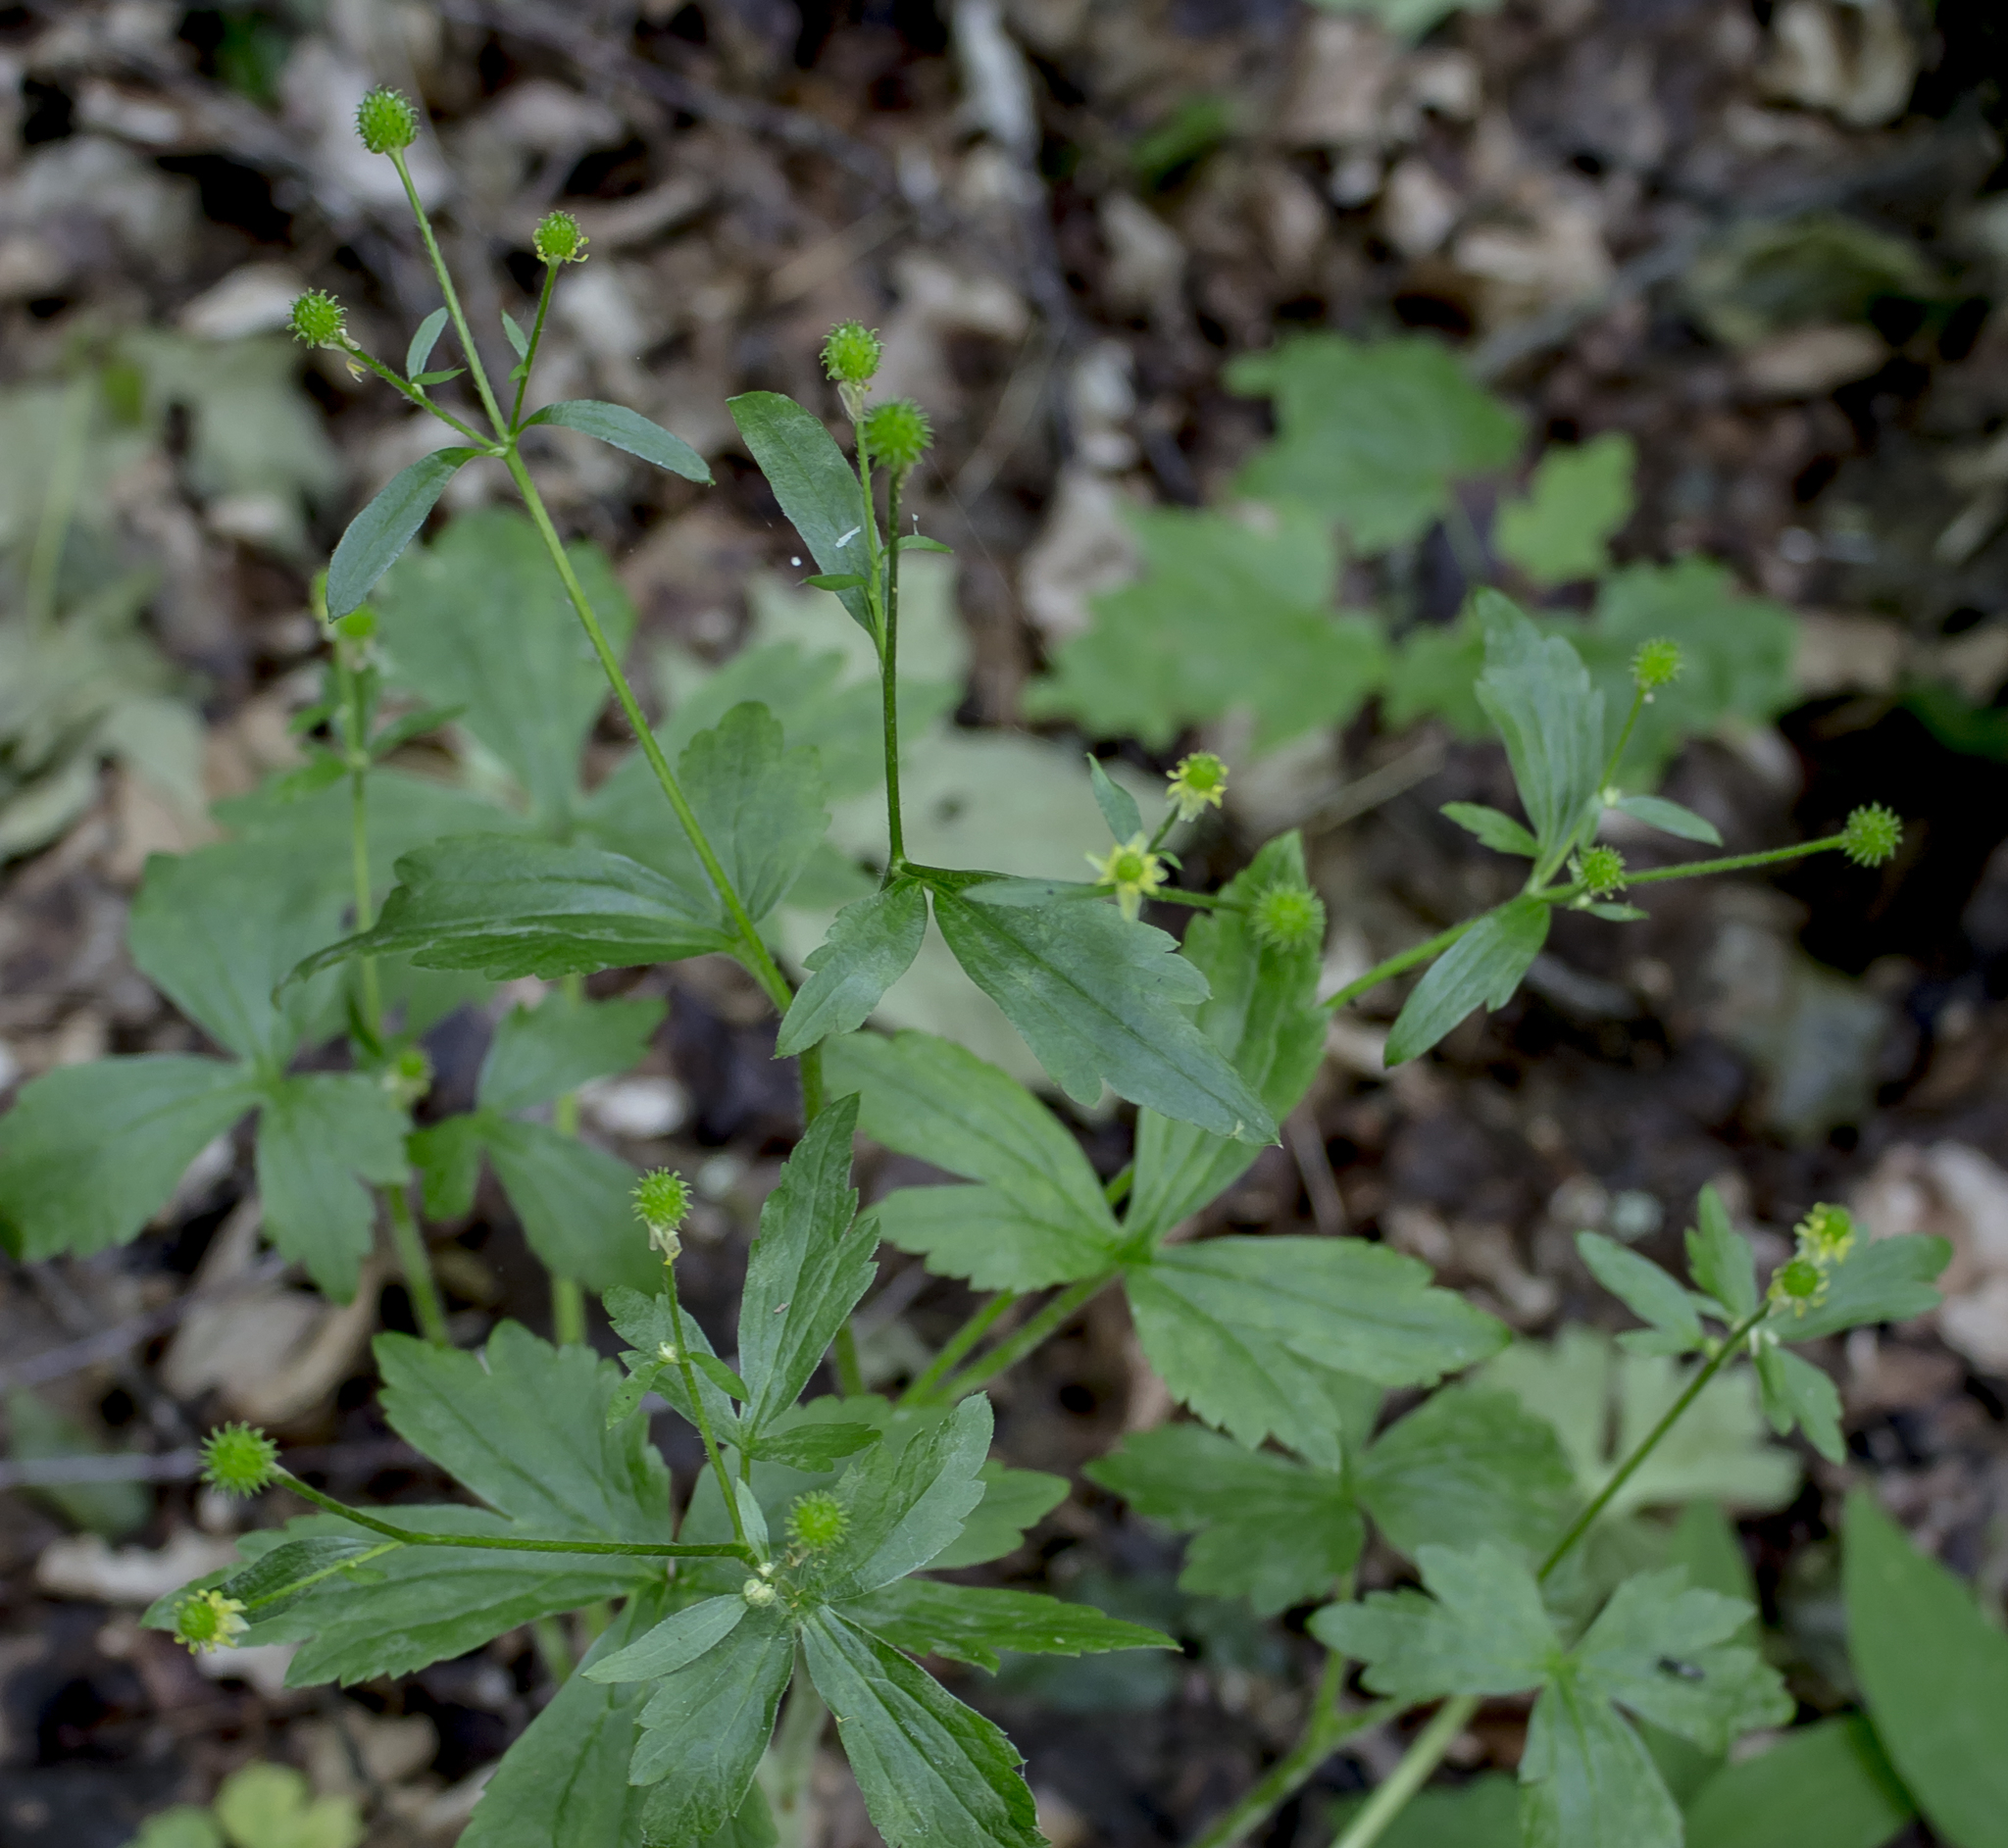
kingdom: Plantae
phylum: Tracheophyta
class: Magnoliopsida
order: Ranunculales
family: Ranunculaceae
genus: Ranunculus
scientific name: Ranunculus recurvatus
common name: Blisterwort
